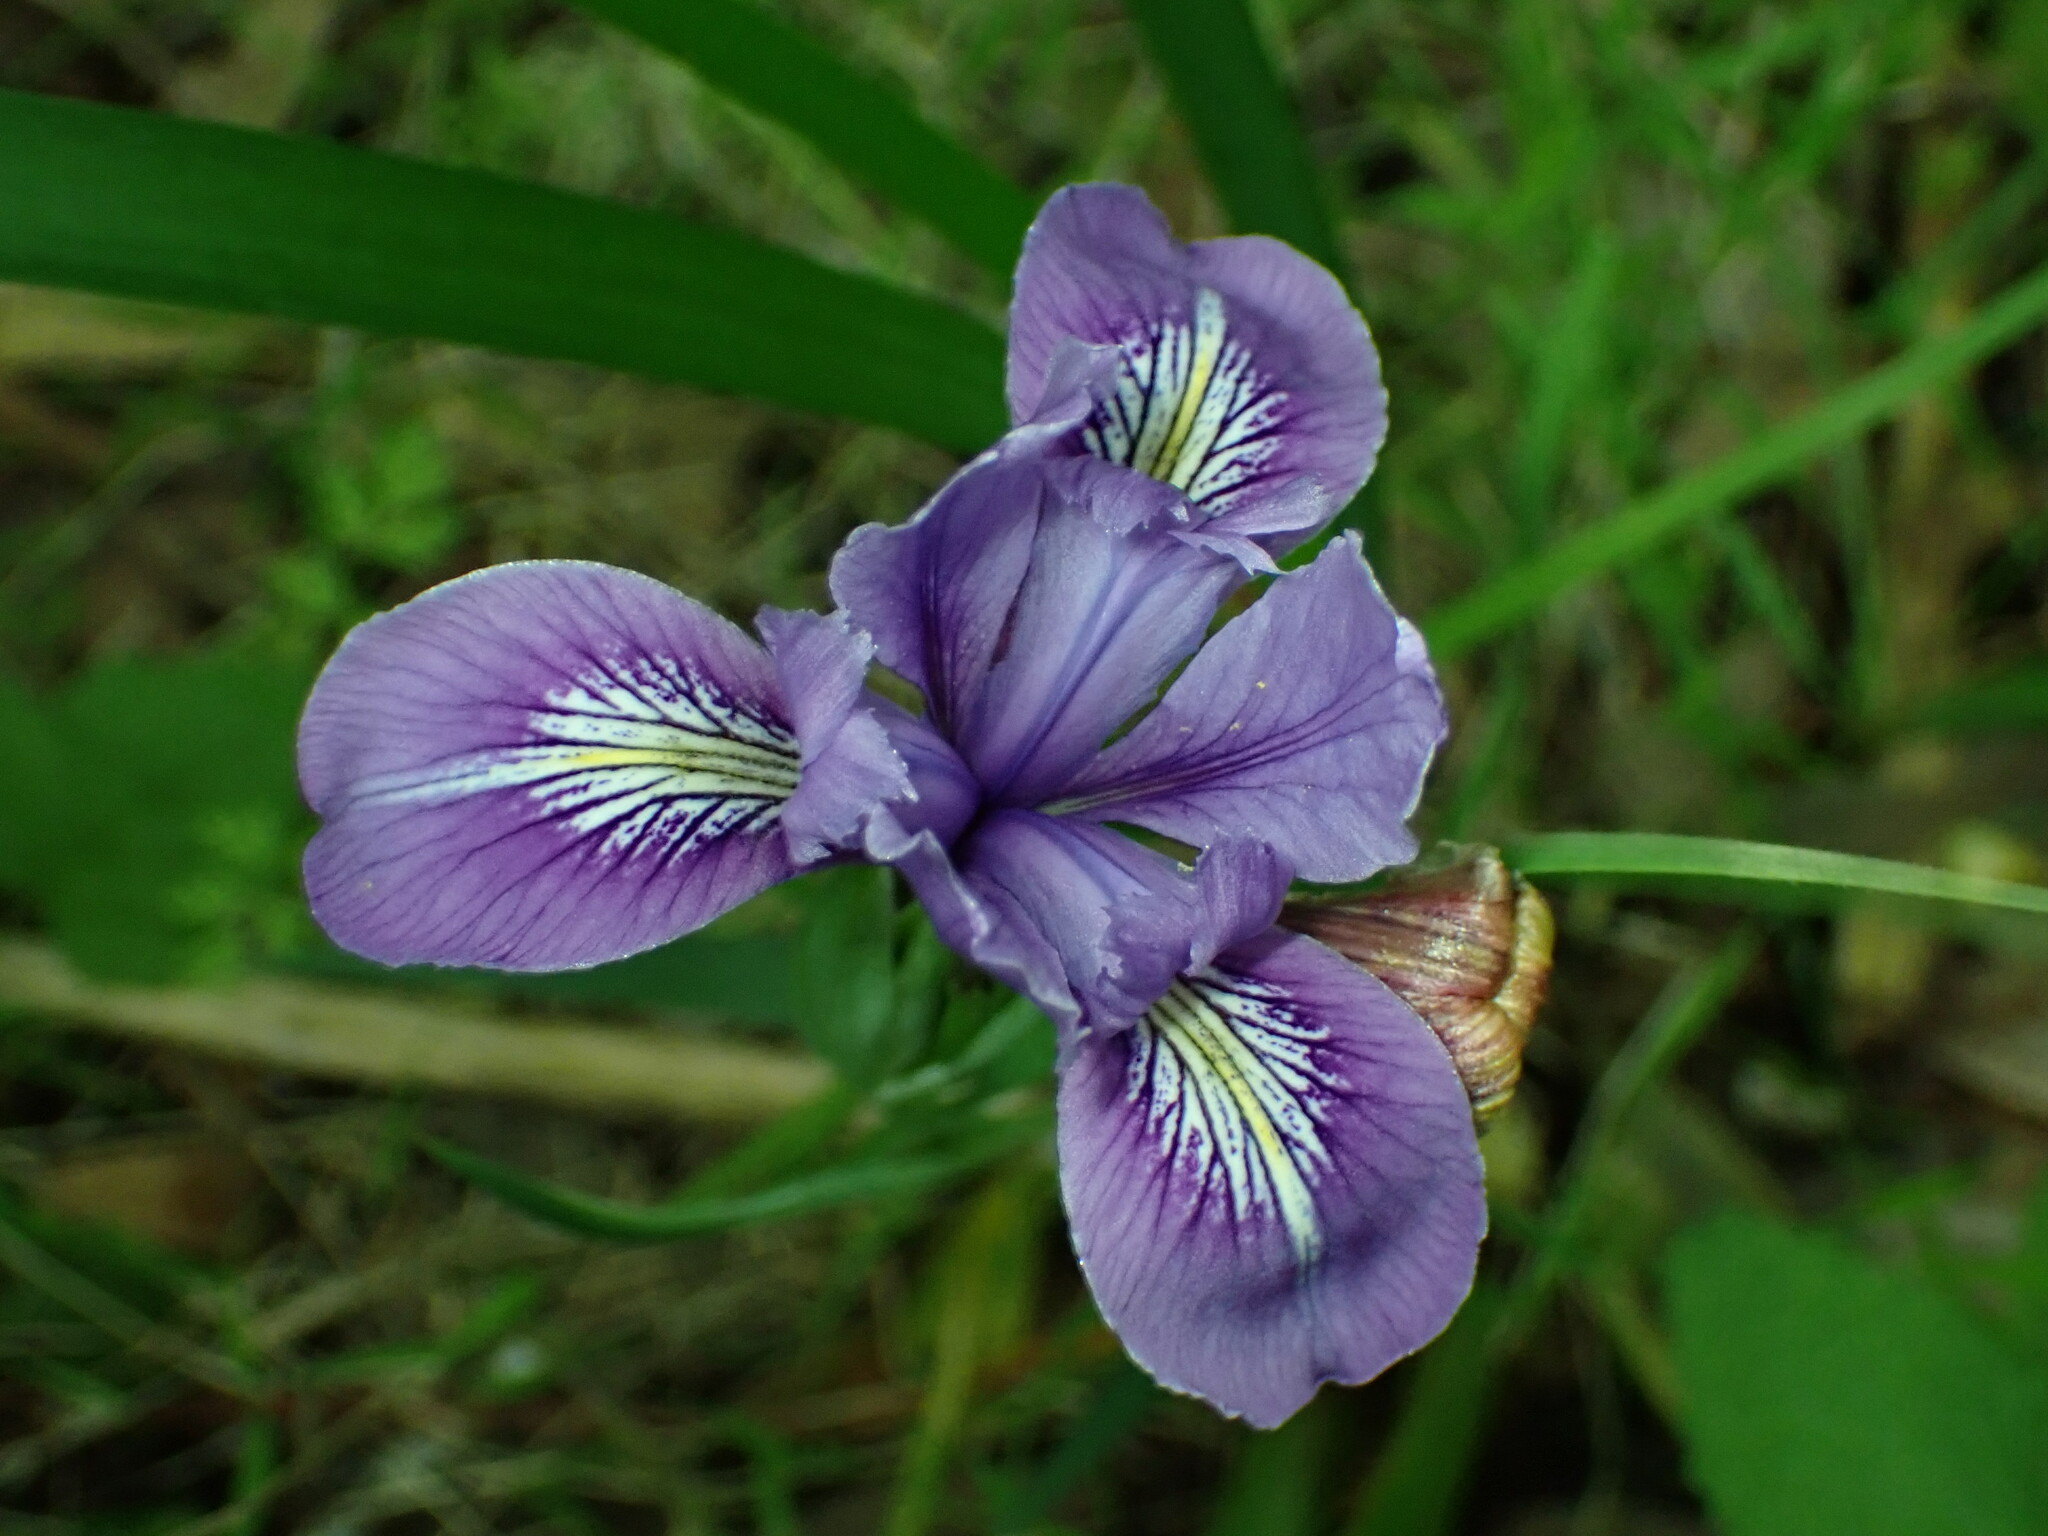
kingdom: Plantae
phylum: Tracheophyta
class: Liliopsida
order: Asparagales
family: Iridaceae
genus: Iris
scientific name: Iris douglasiana
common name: Marin iris
